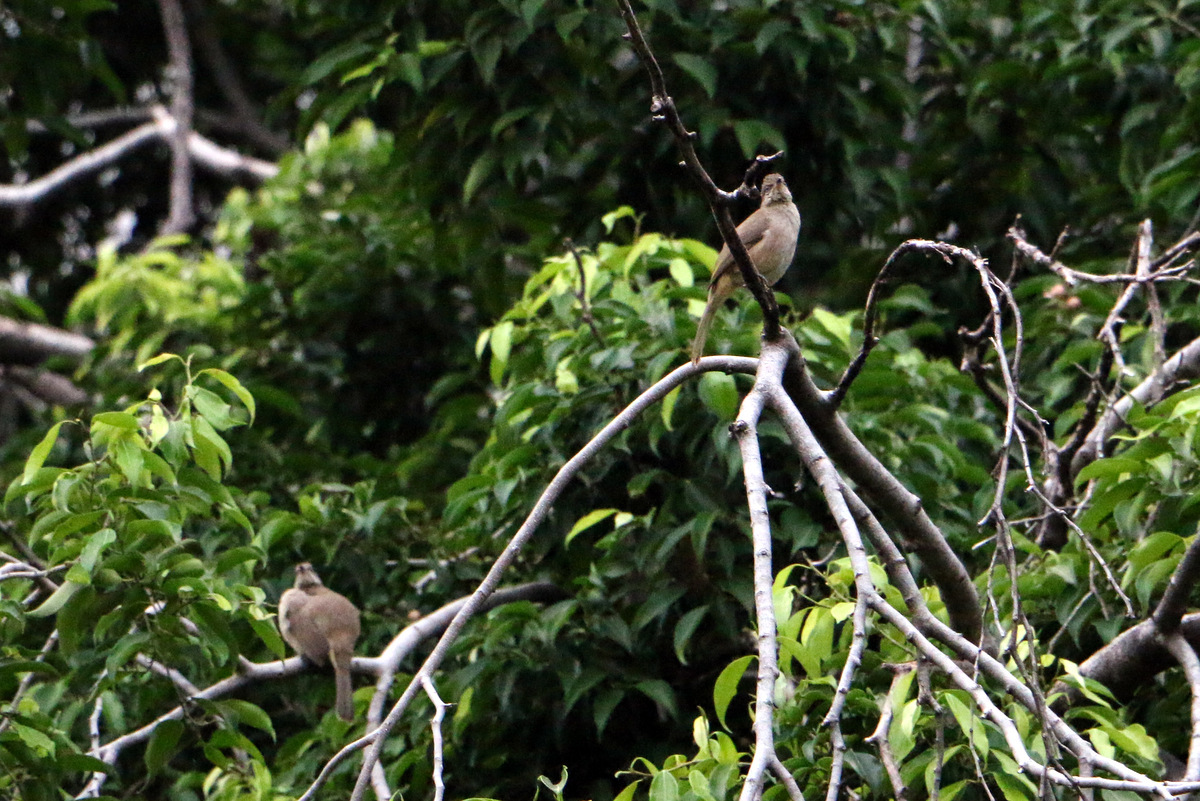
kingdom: Animalia
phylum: Chordata
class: Aves
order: Passeriformes
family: Pycnonotidae
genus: Pycnonotus
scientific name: Pycnonotus blanfordi
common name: Streak-eared bulbul
